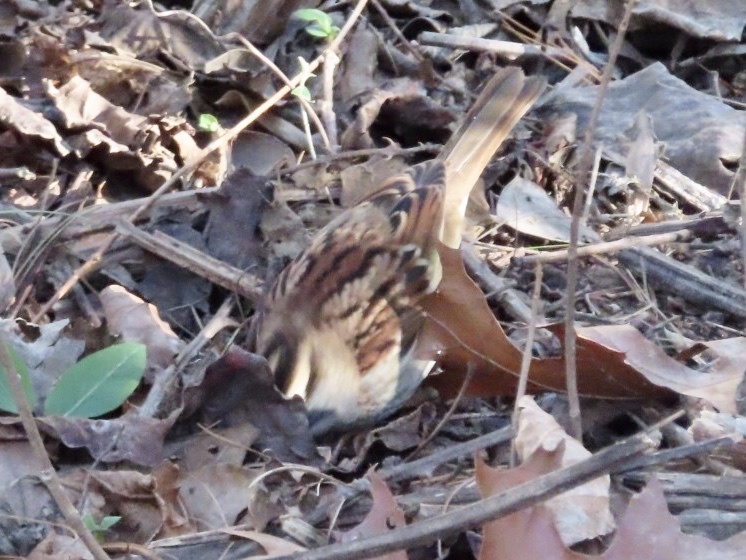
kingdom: Animalia
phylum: Chordata
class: Aves
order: Passeriformes
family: Passerellidae
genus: Zonotrichia
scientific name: Zonotrichia albicollis
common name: White-throated sparrow
